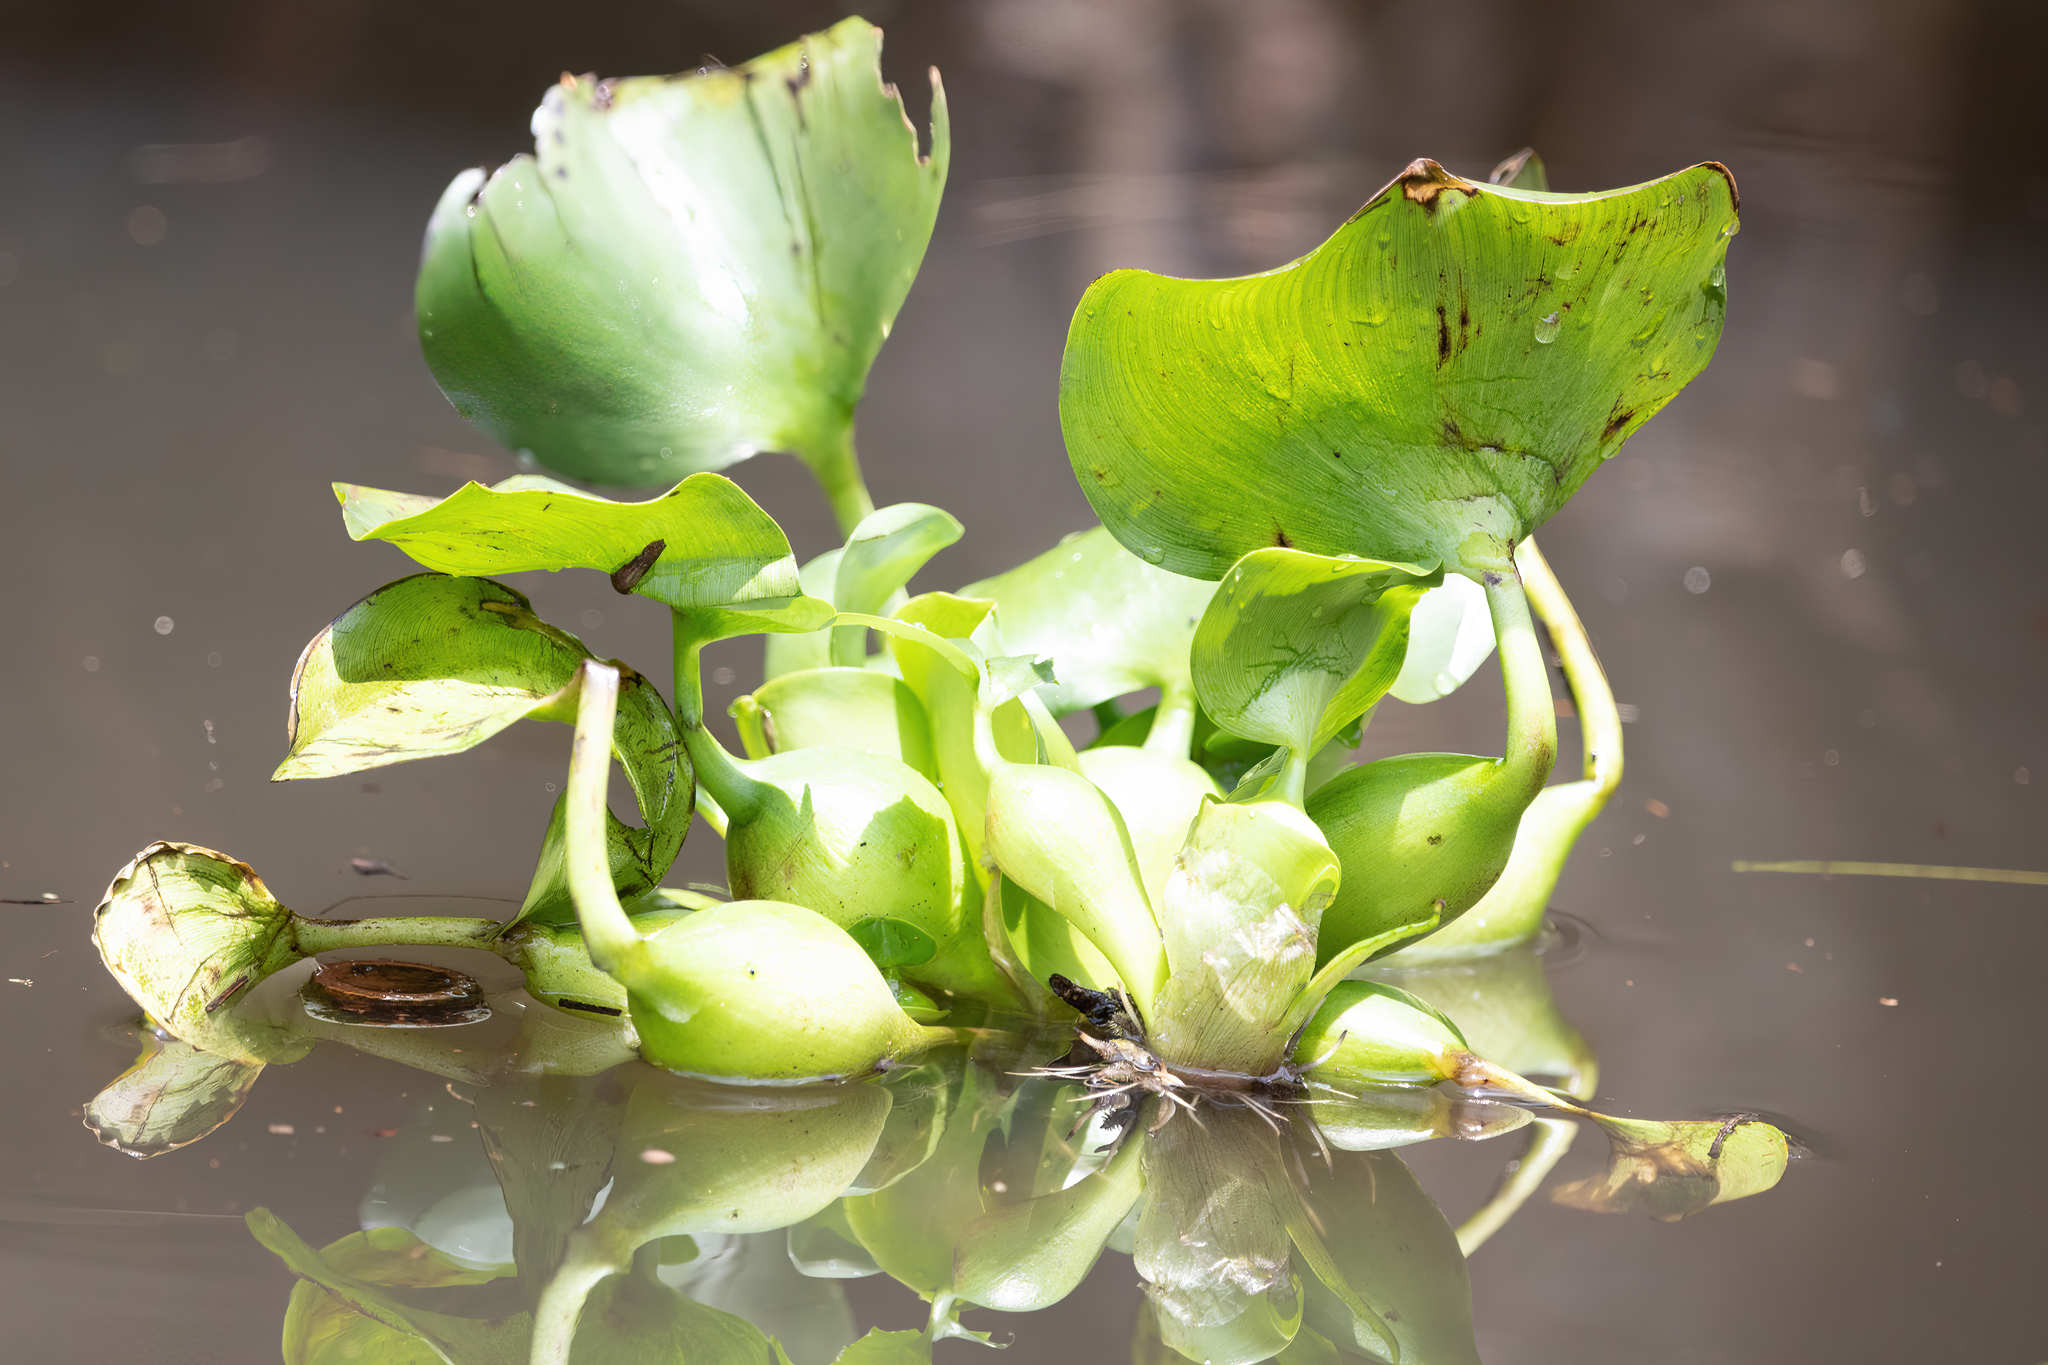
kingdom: Plantae
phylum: Tracheophyta
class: Liliopsida
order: Commelinales
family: Pontederiaceae
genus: Pontederia
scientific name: Pontederia crassipes
